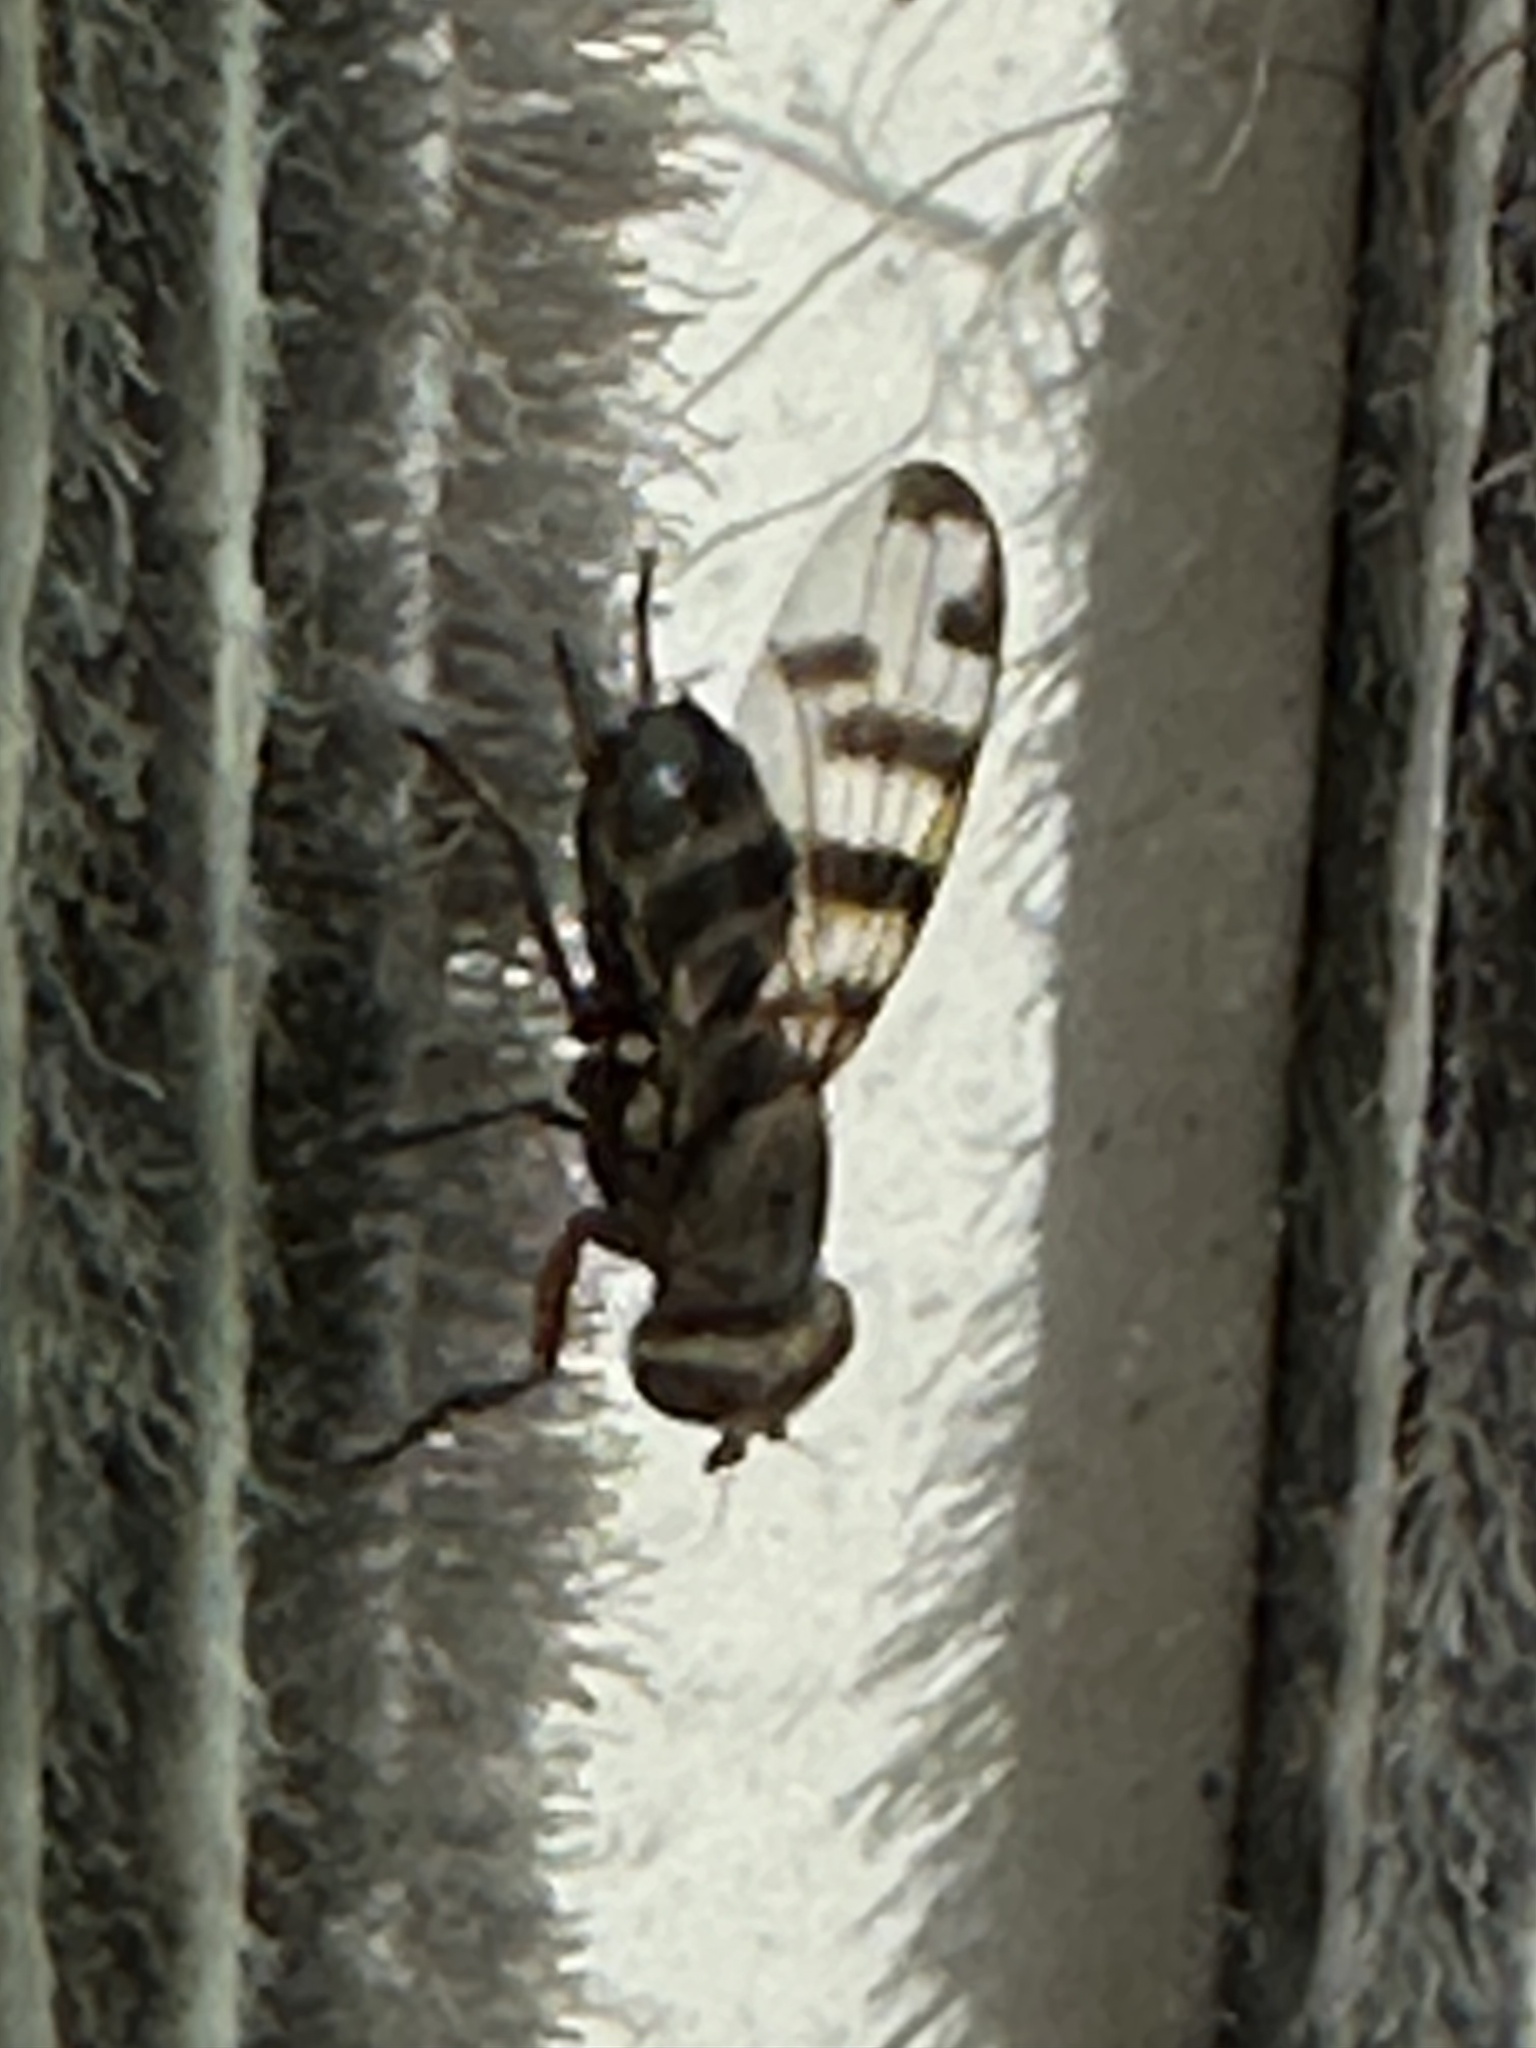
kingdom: Animalia
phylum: Arthropoda
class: Insecta
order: Diptera
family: Ulidiidae
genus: Ceroxys
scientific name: Ceroxys latiusculus
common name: Picture-winged fly
